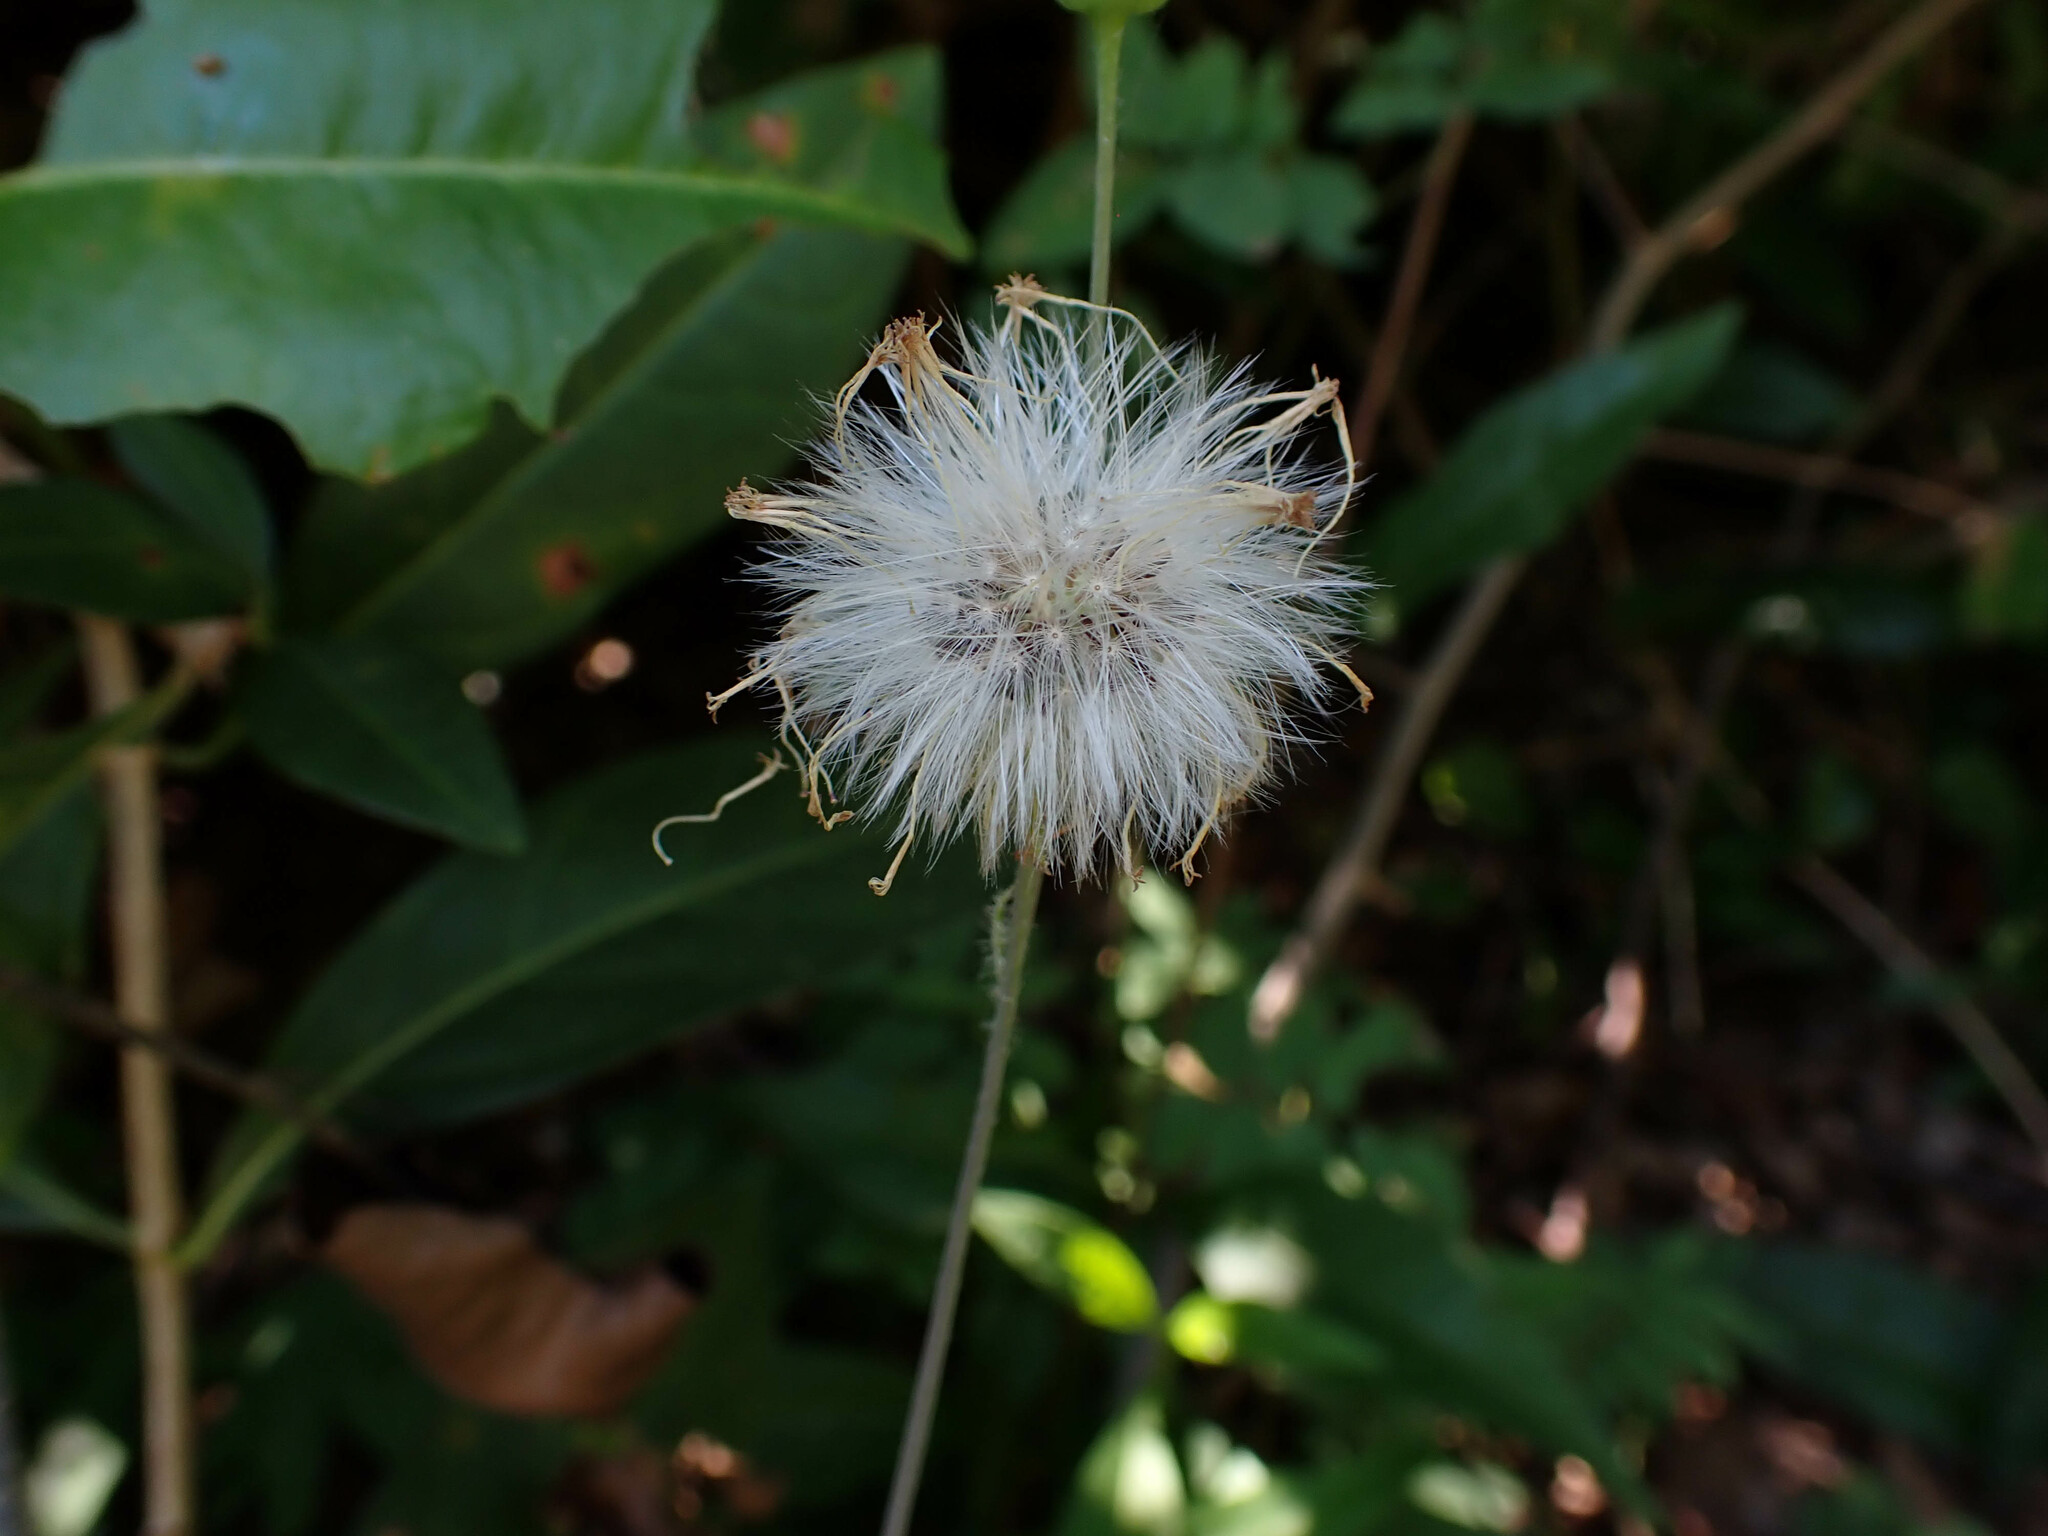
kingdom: Plantae
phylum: Tracheophyta
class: Magnoliopsida
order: Asterales
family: Asteraceae
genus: Emilia
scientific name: Emilia fosbergii
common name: Florida tasselflower
